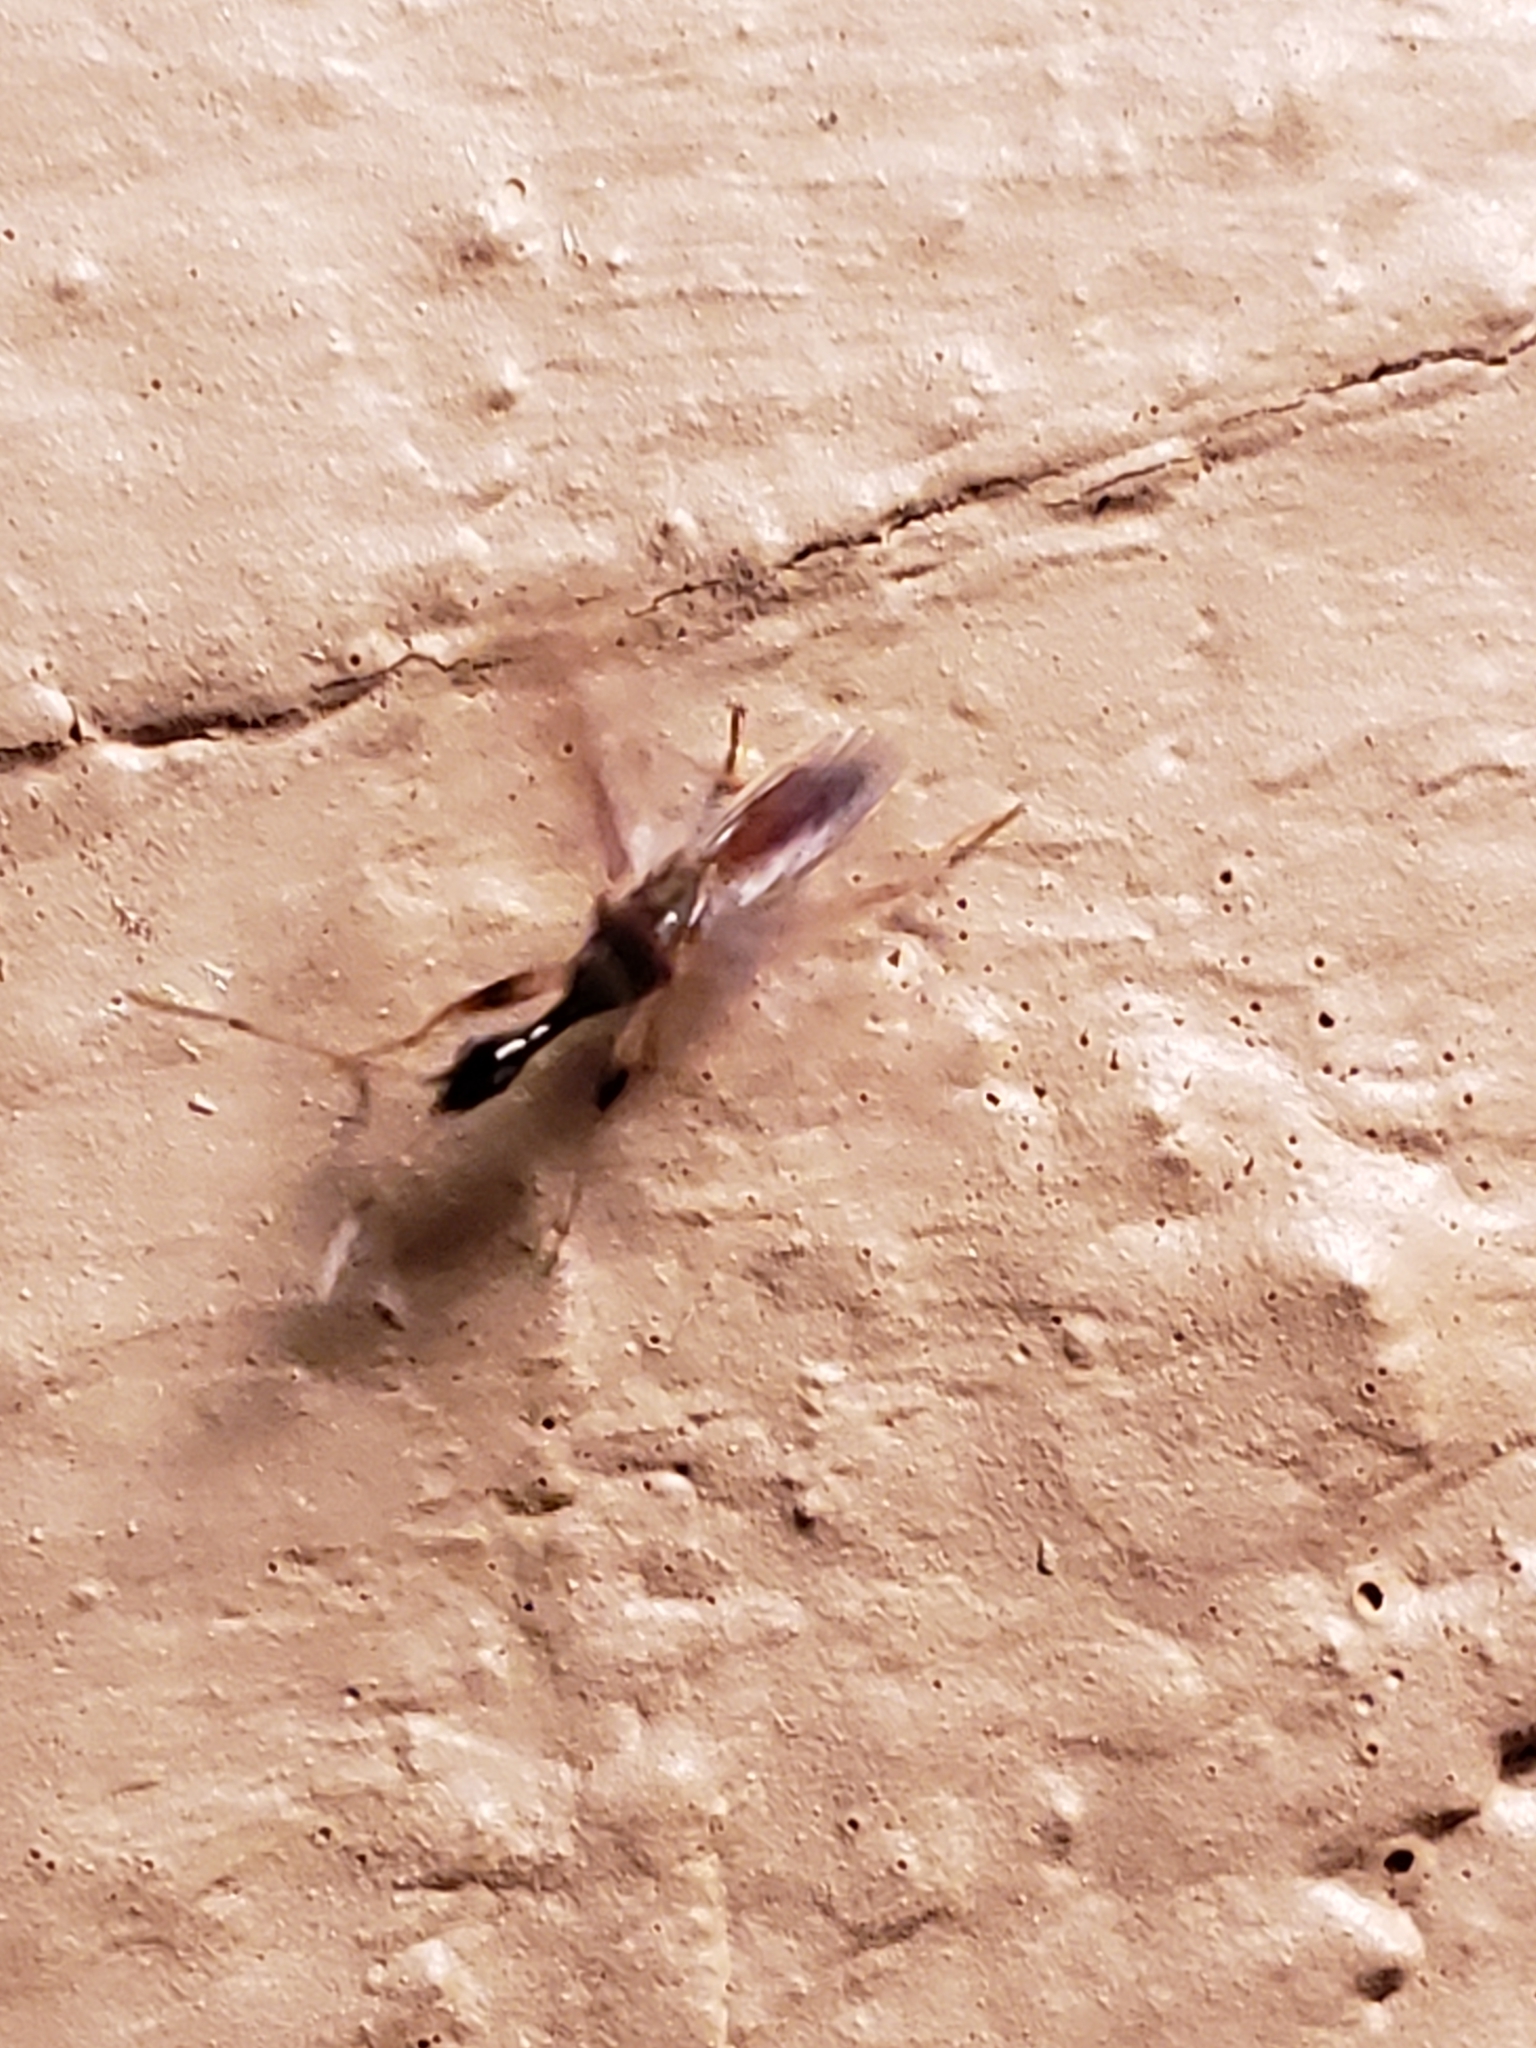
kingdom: Animalia
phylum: Arthropoda
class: Insecta
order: Hemiptera
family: Rhyparochromidae
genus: Myodocha
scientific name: Myodocha serripes
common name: Long-necked seed bug
